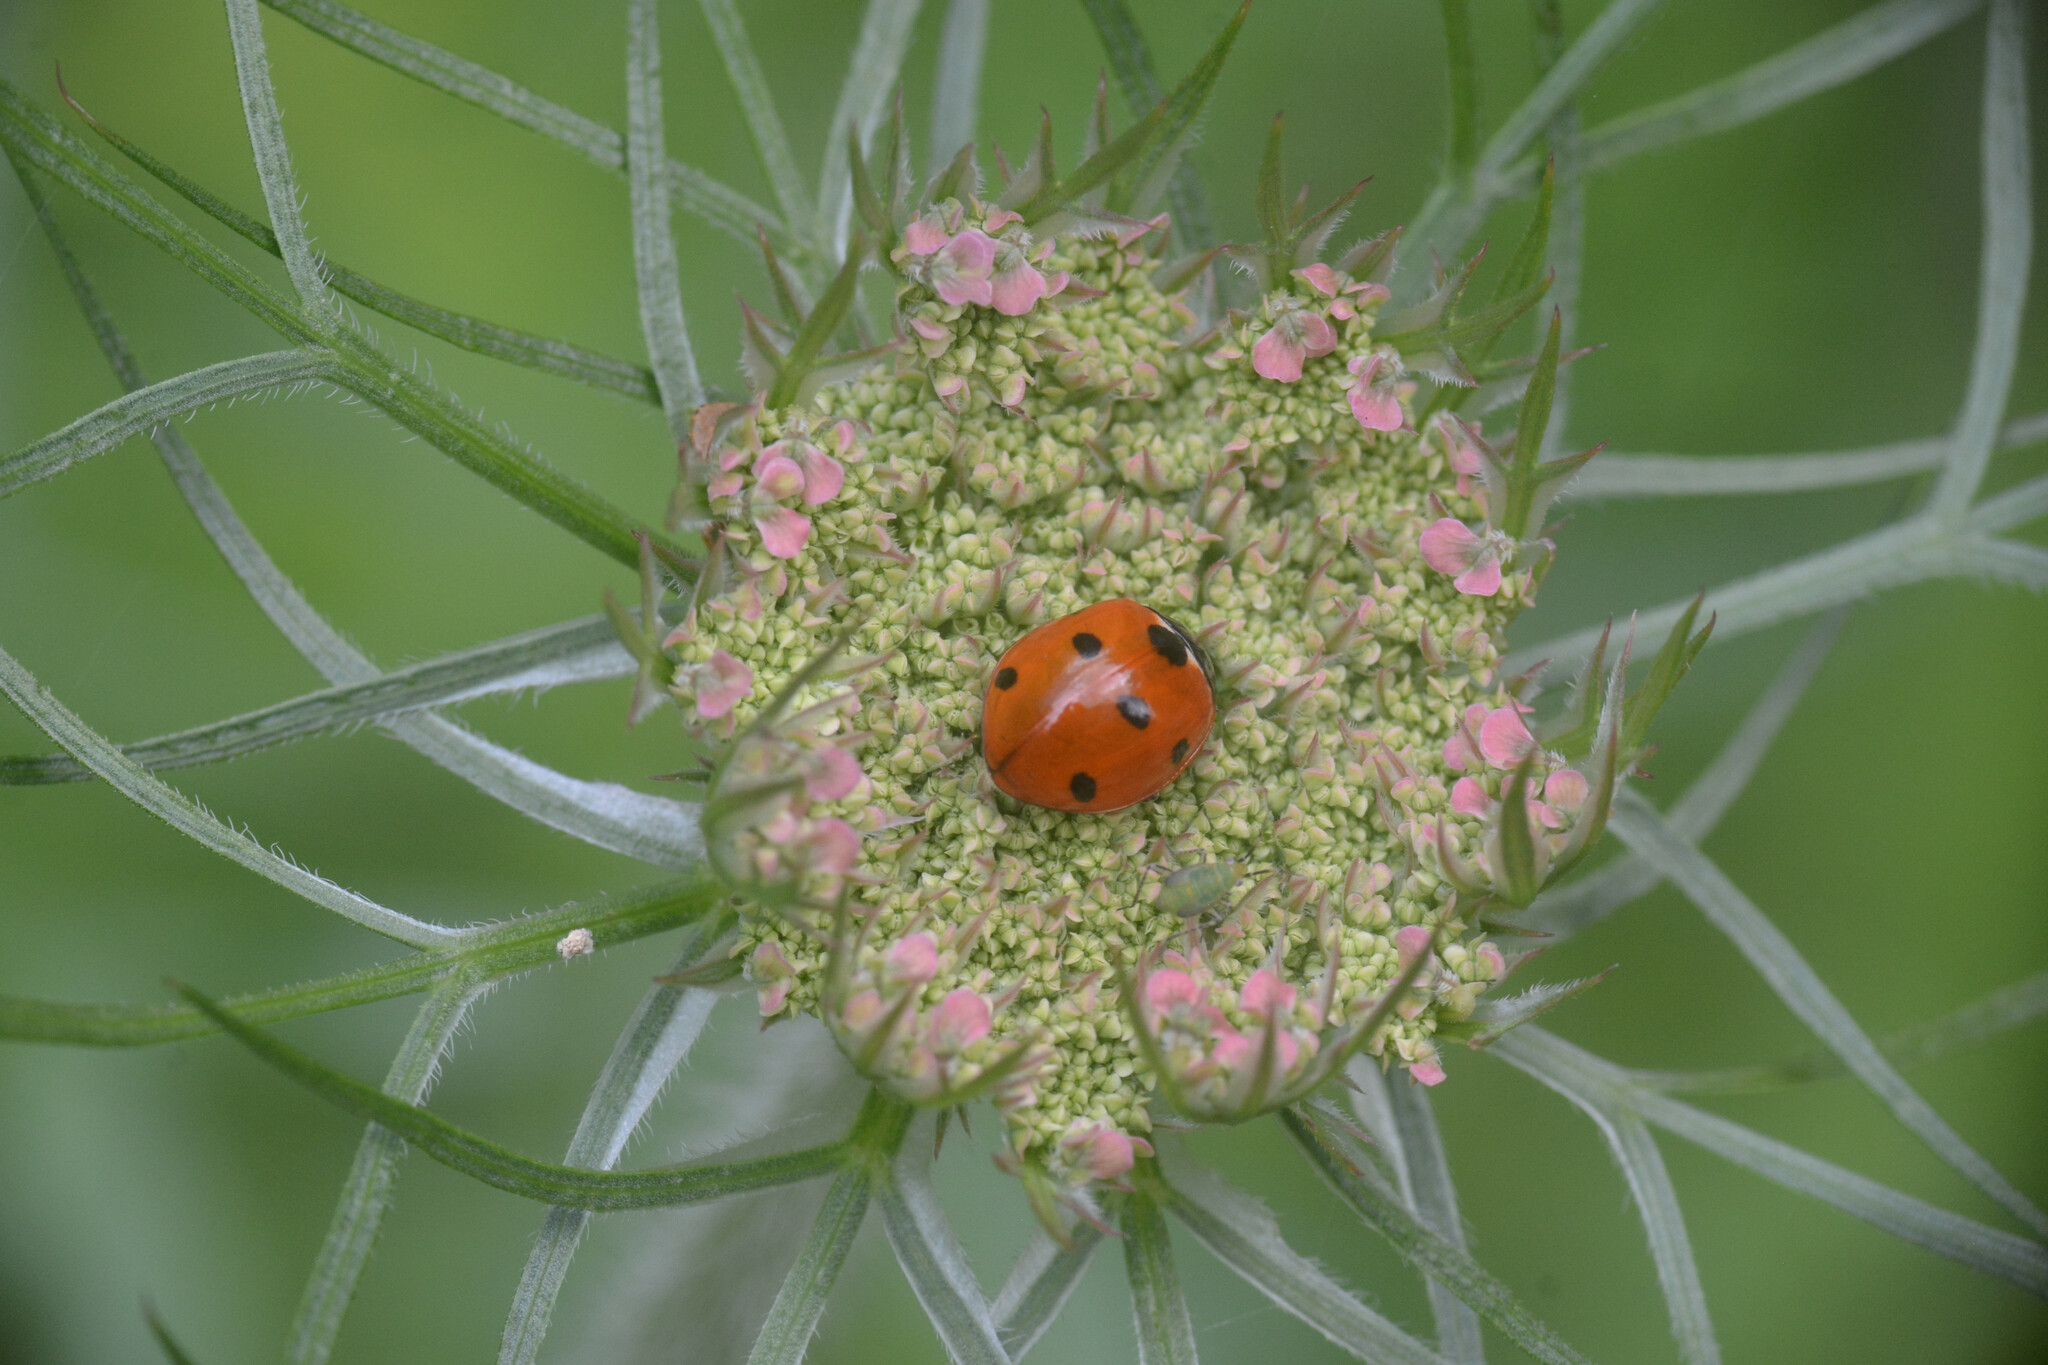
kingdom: Animalia
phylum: Arthropoda
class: Insecta
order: Coleoptera
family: Coccinellidae
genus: Coccinella
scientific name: Coccinella septempunctata
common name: Sevenspotted lady beetle
